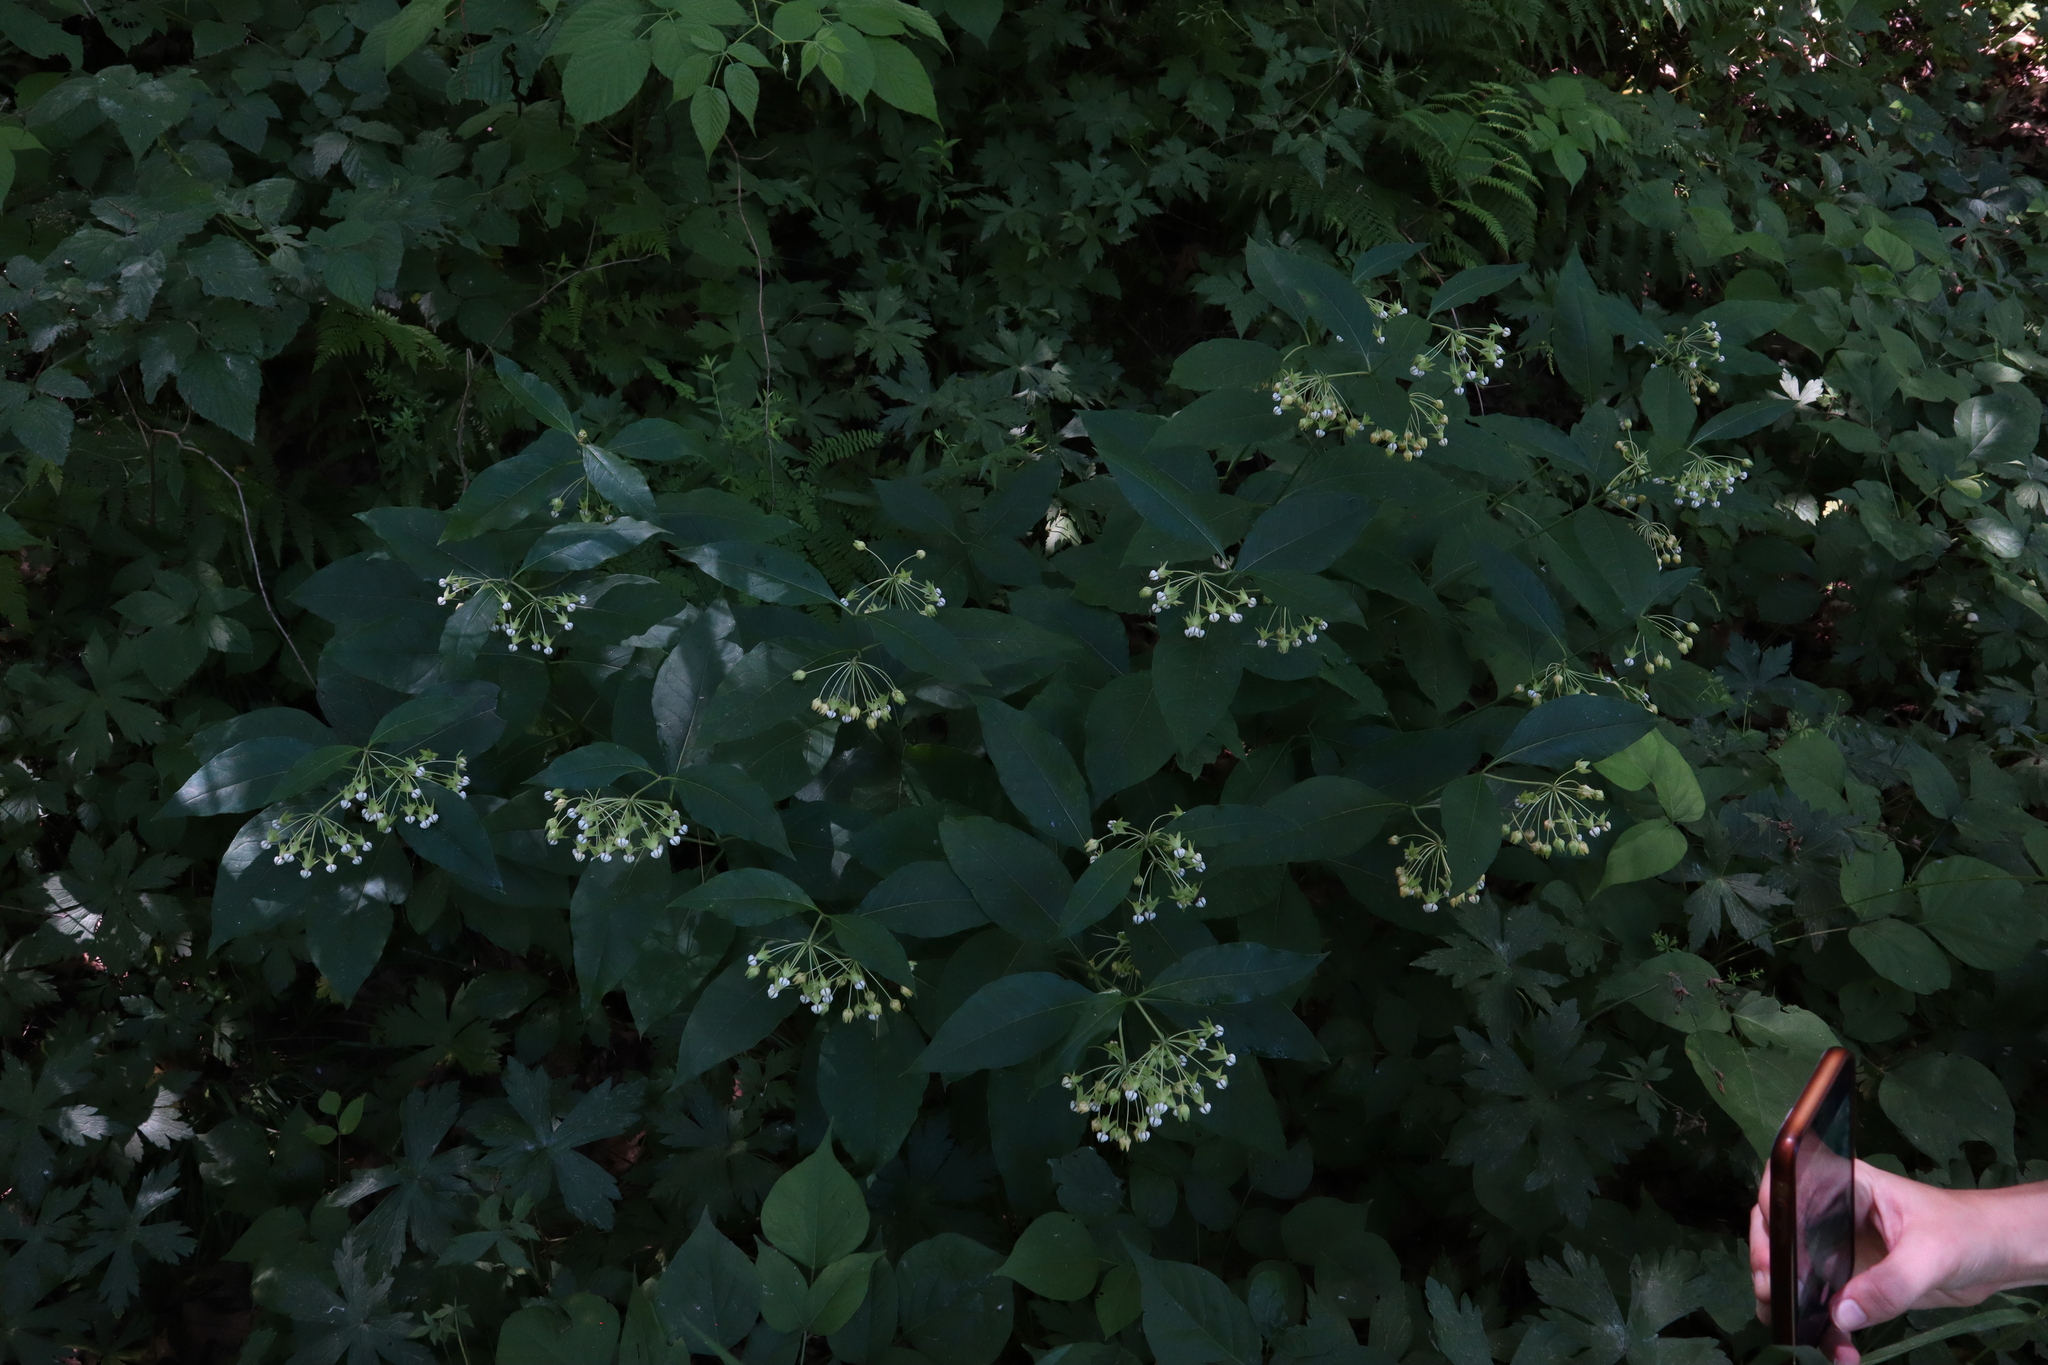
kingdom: Plantae
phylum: Tracheophyta
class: Magnoliopsida
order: Gentianales
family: Apocynaceae
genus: Asclepias
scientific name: Asclepias exaltata
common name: Poke milkweed
